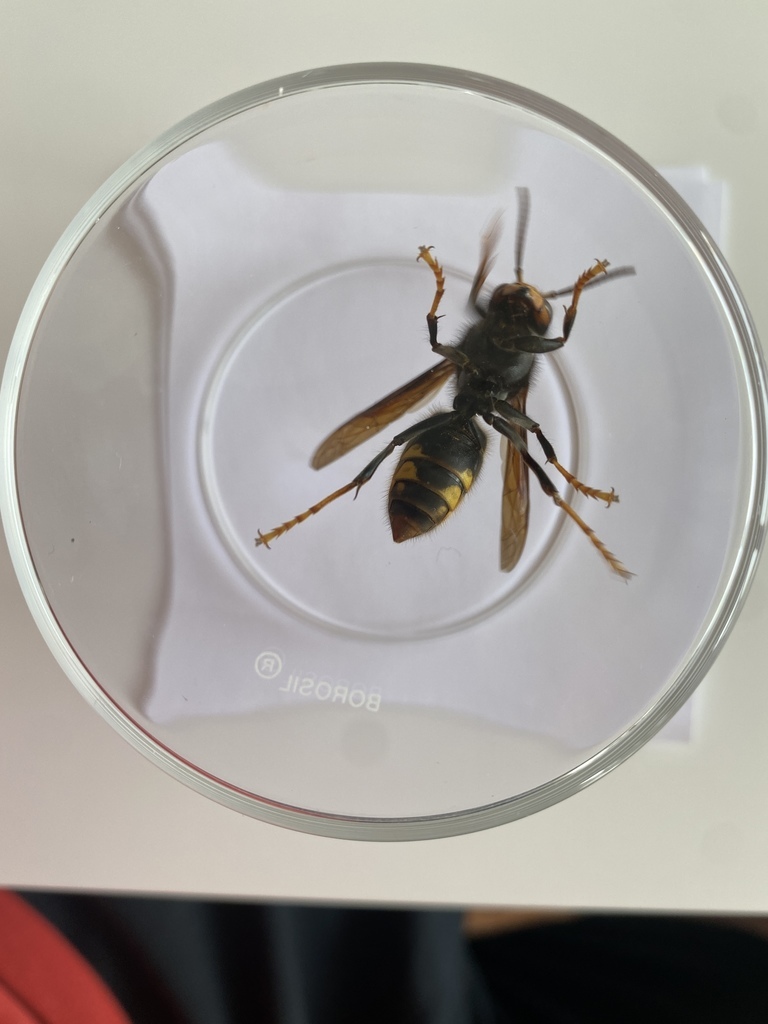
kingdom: Animalia
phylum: Arthropoda
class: Insecta
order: Hymenoptera
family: Vespidae
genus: Vespa
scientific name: Vespa velutina
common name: Asian hornet
